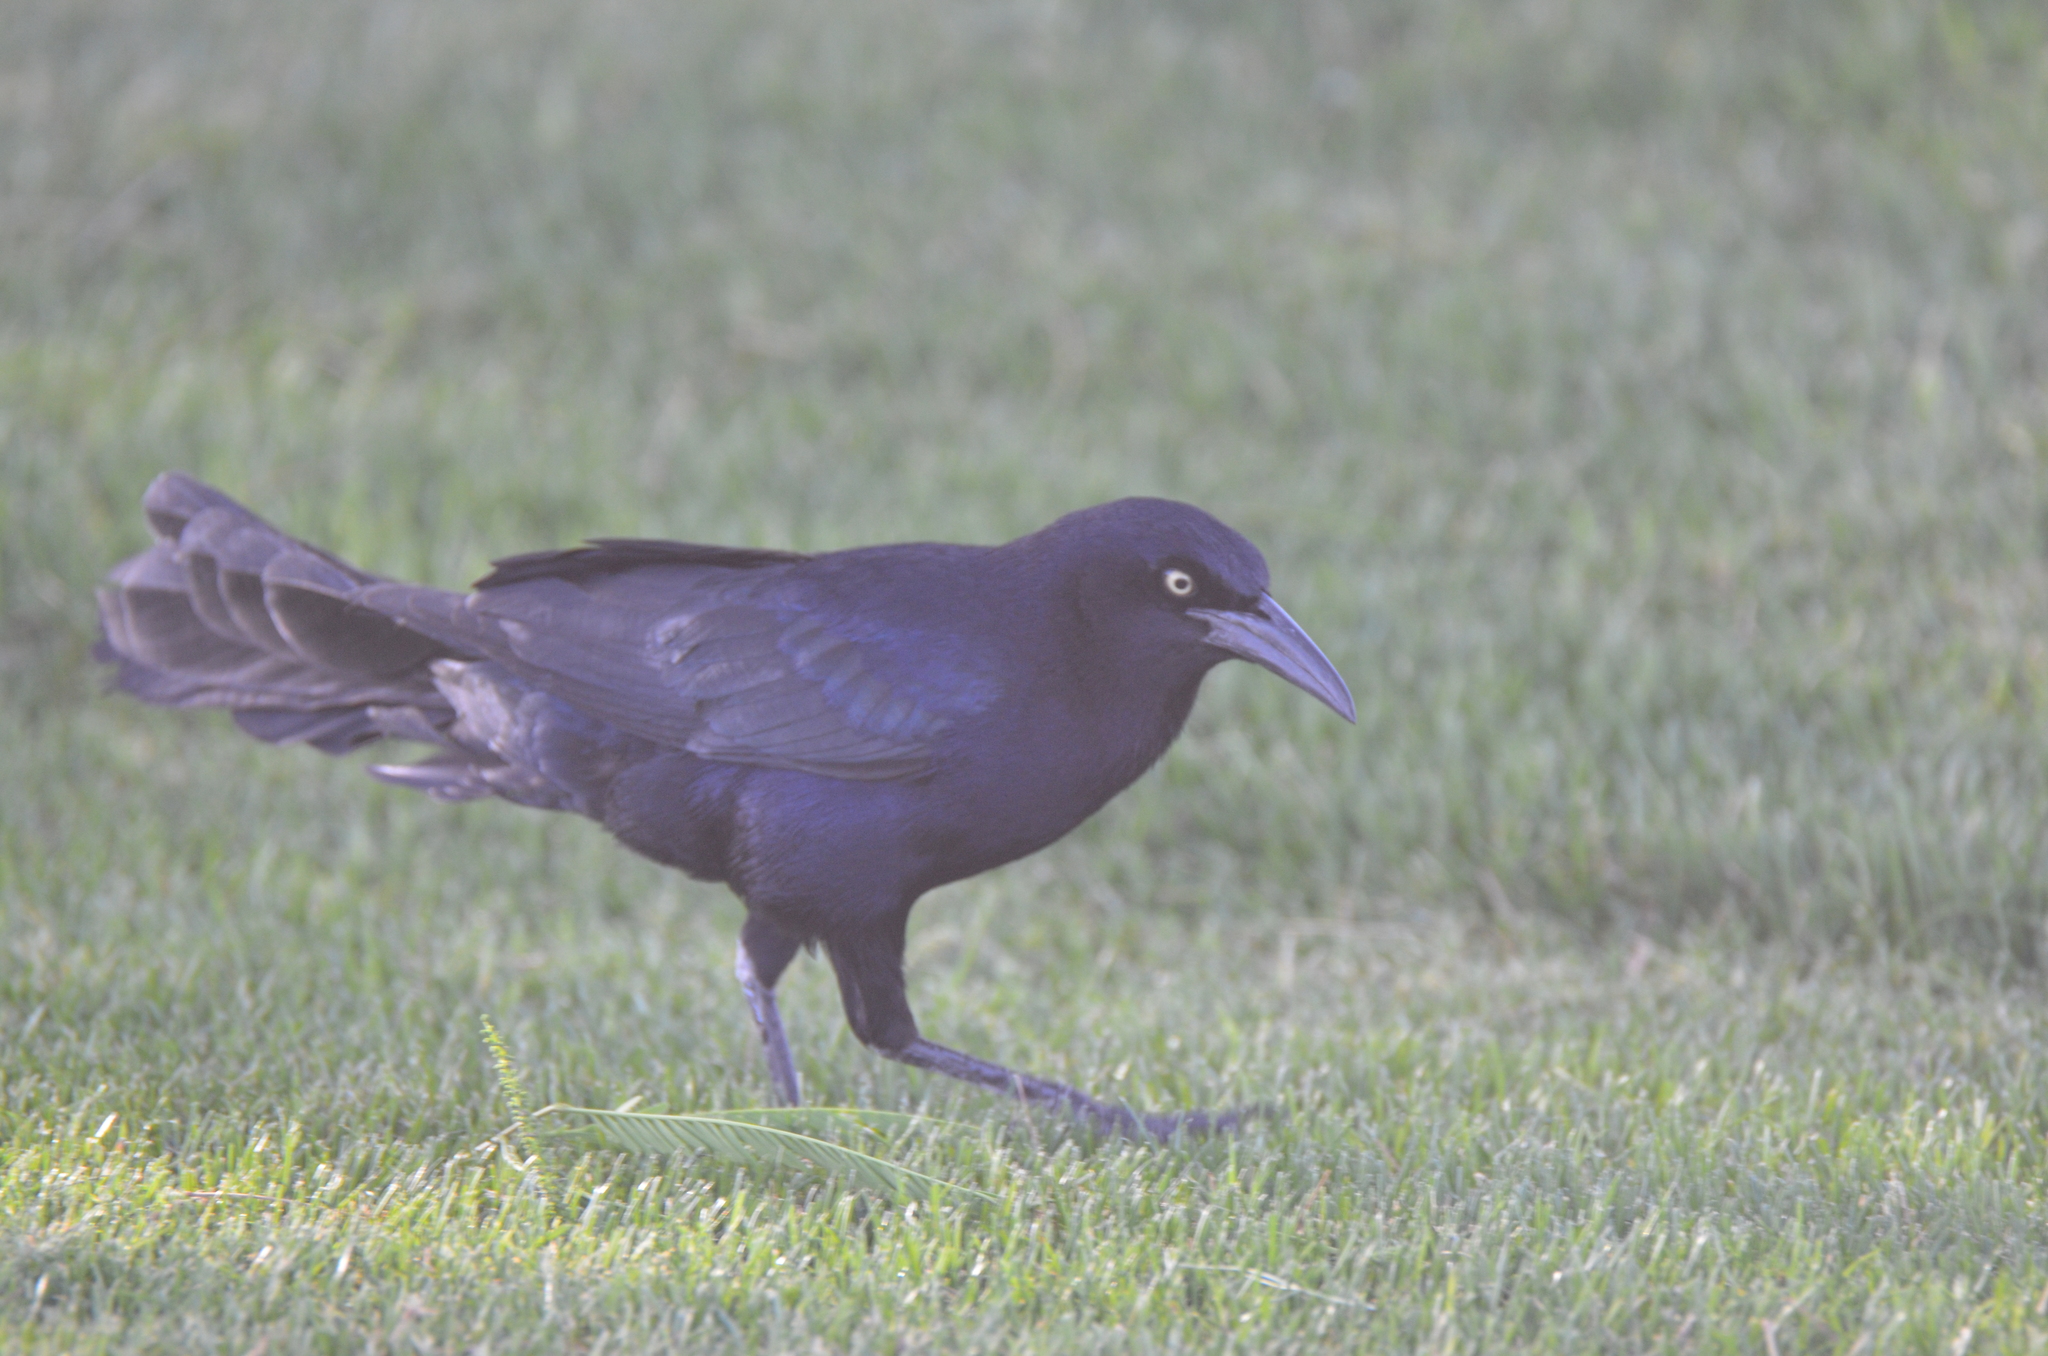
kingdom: Animalia
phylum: Chordata
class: Aves
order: Passeriformes
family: Icteridae
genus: Quiscalus
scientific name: Quiscalus mexicanus
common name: Great-tailed grackle
